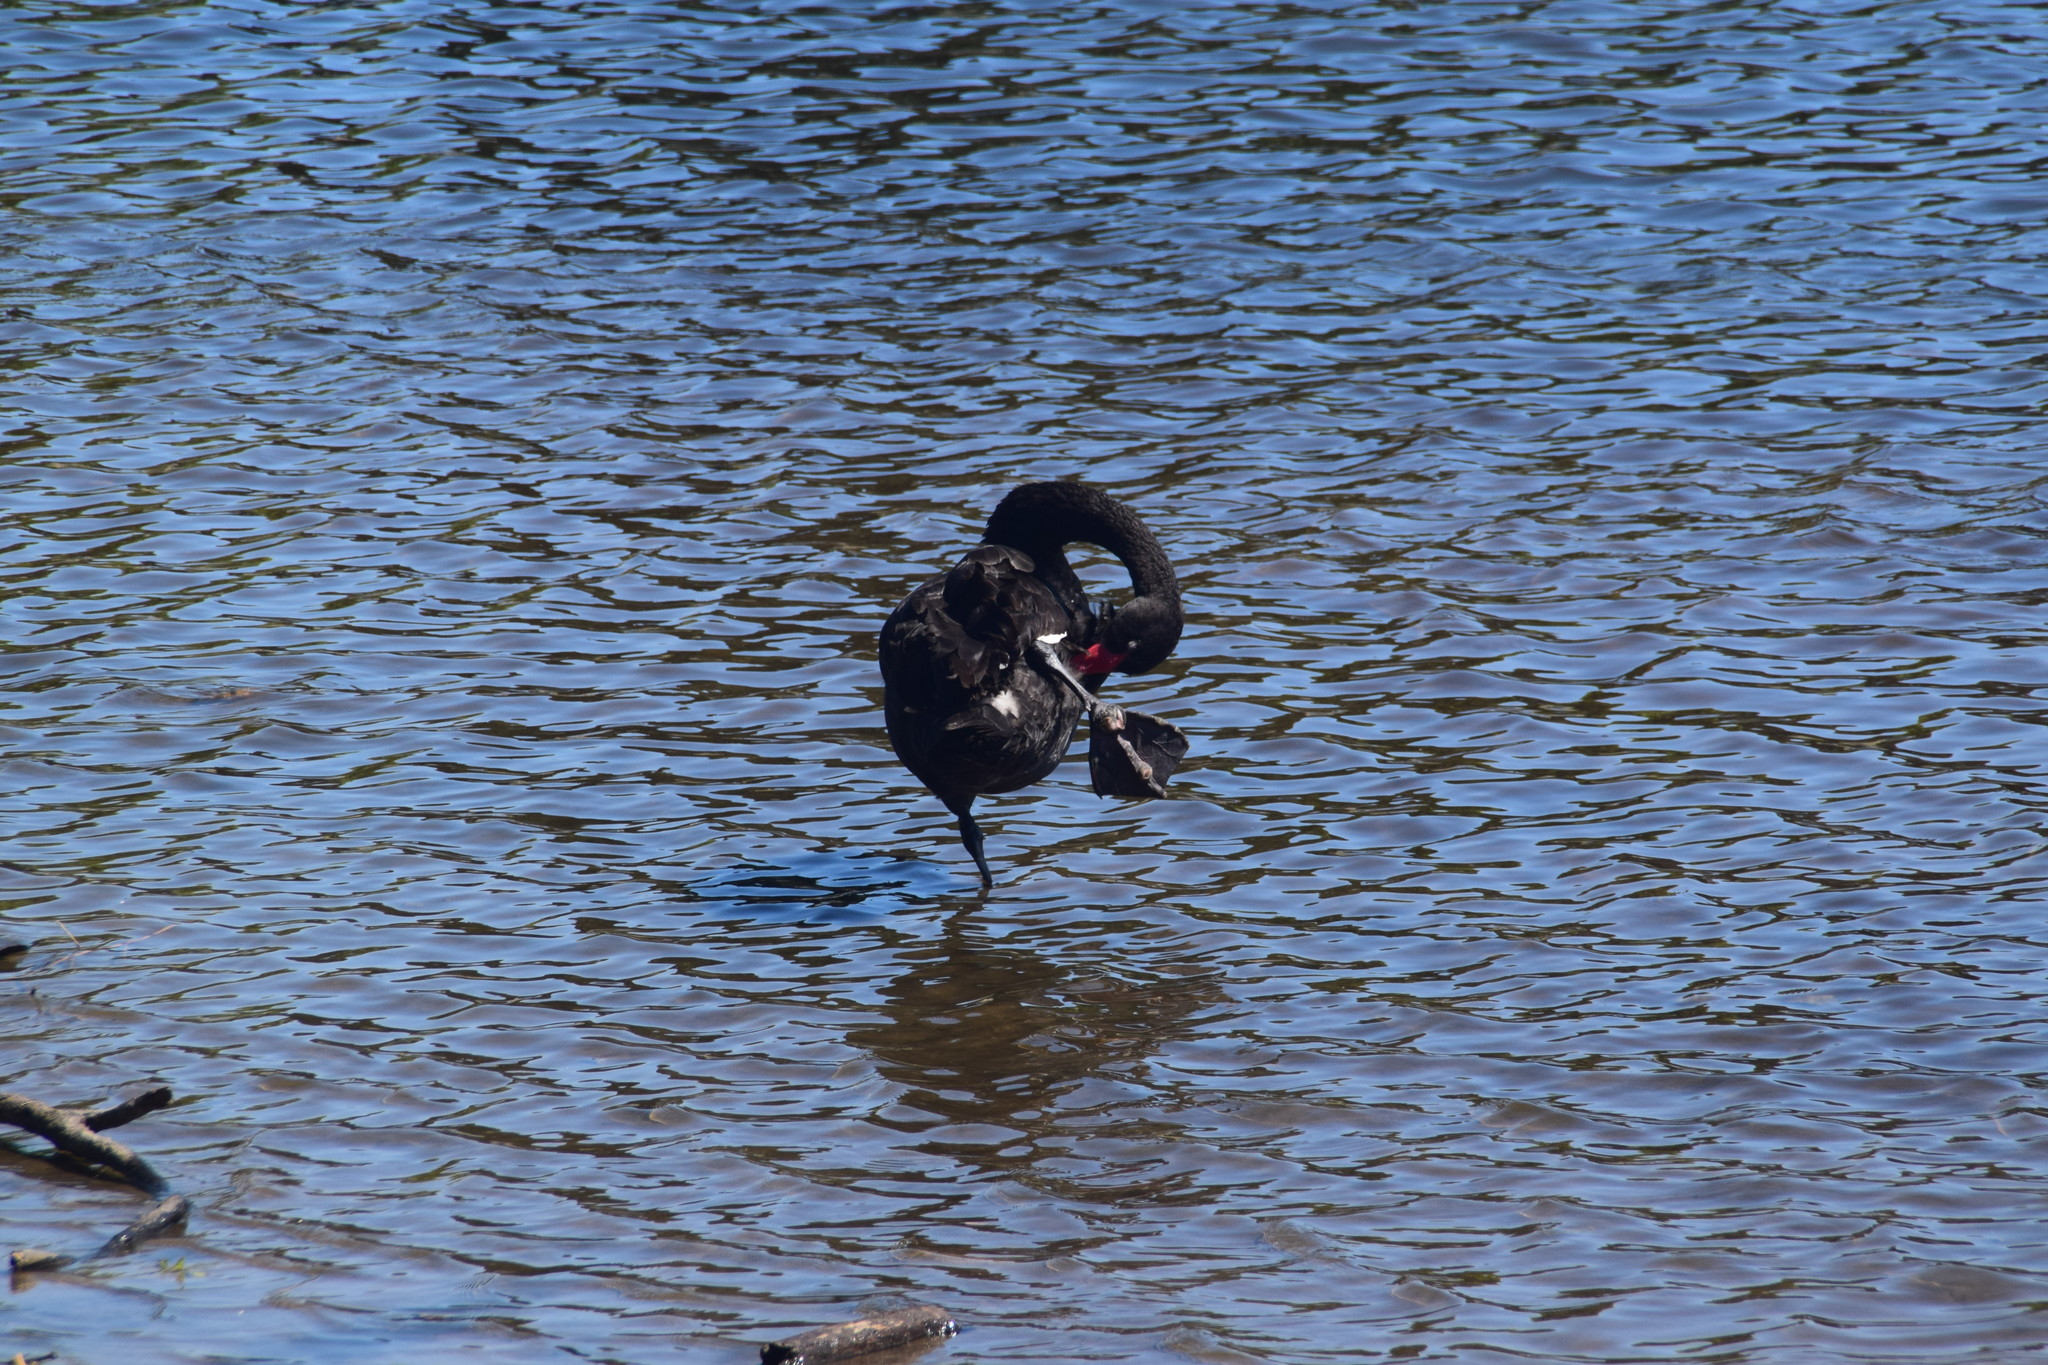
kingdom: Animalia
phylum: Chordata
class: Aves
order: Anseriformes
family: Anatidae
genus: Cygnus
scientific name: Cygnus atratus
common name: Black swan
